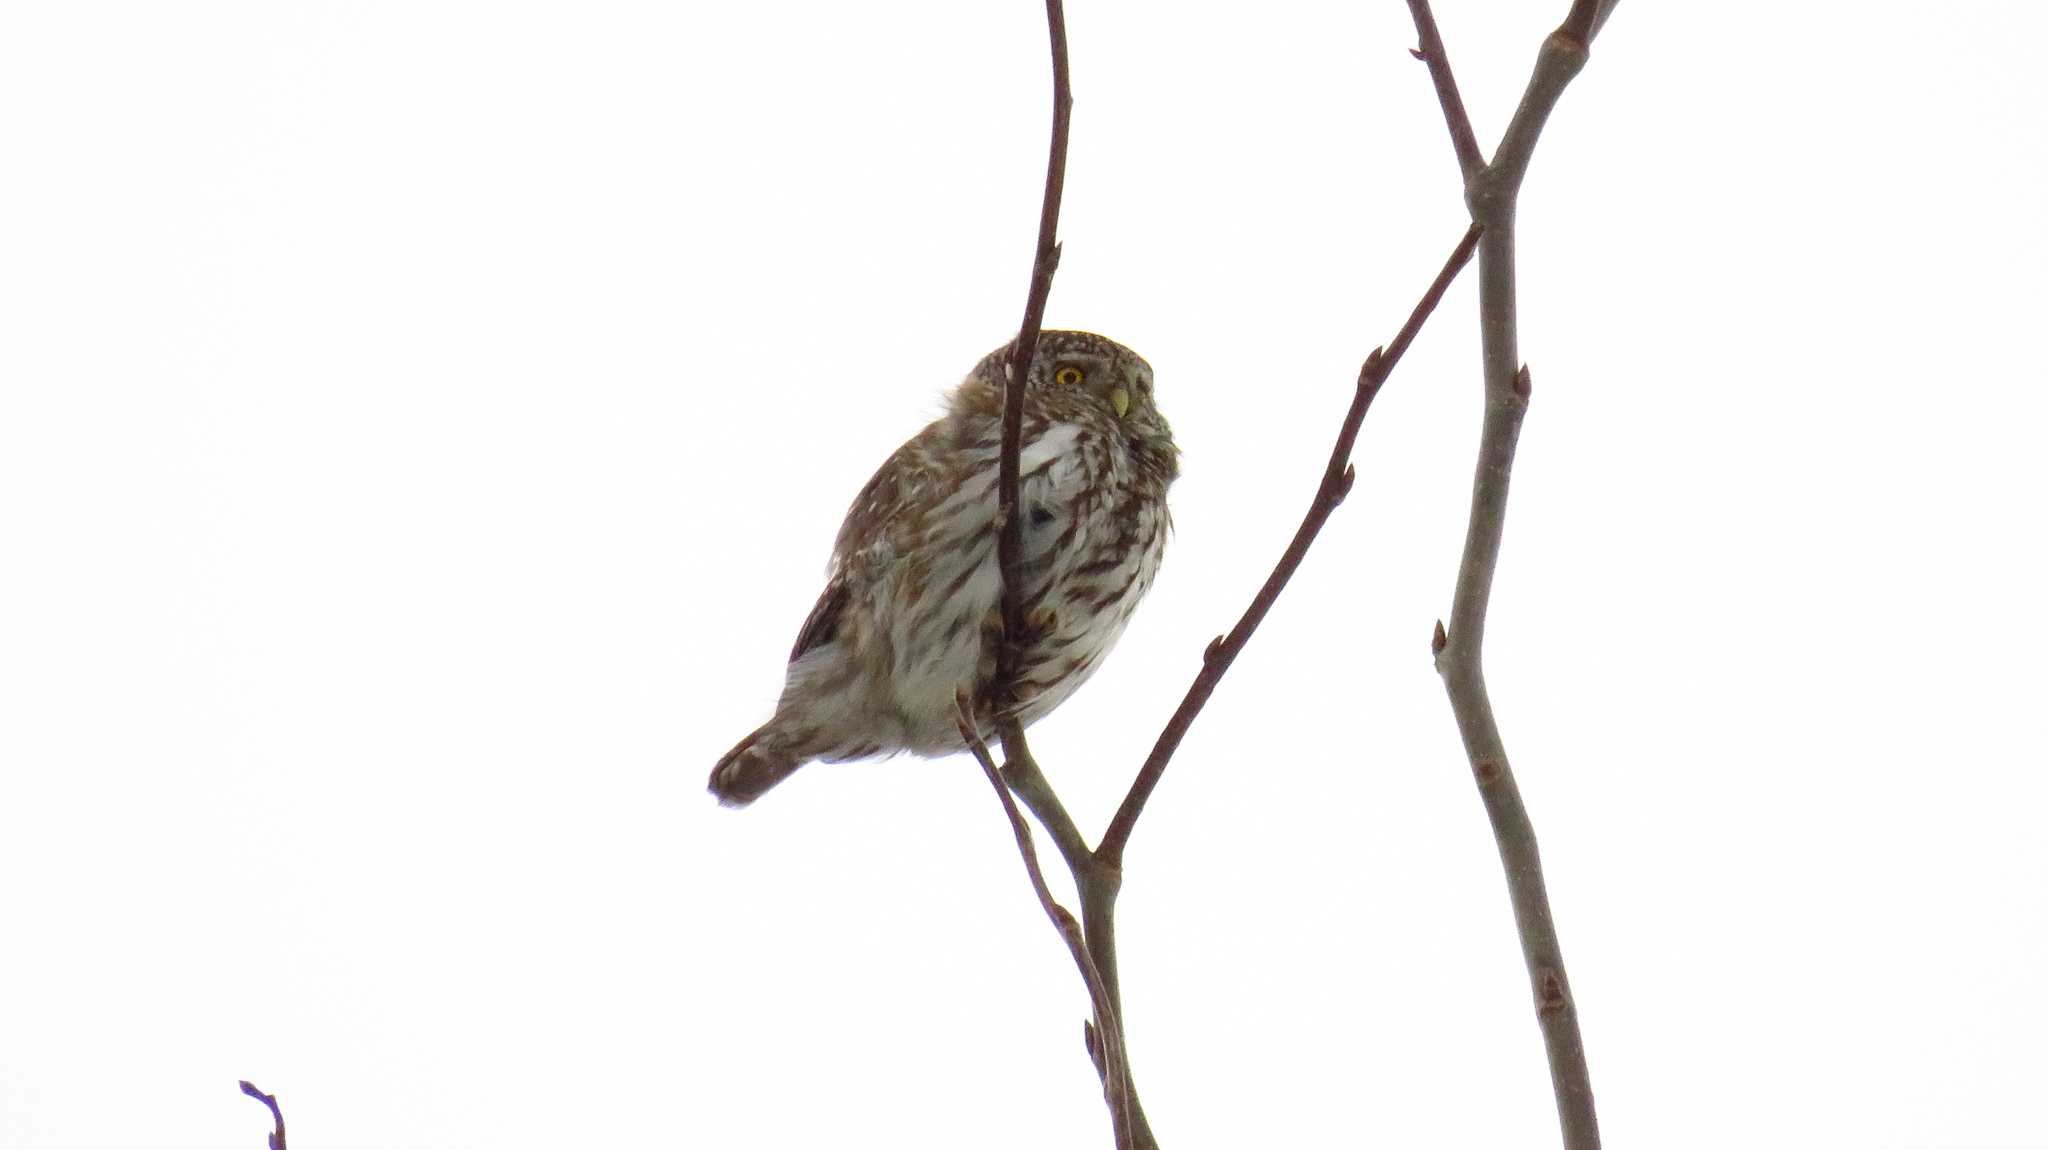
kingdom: Animalia
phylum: Chordata
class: Aves
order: Strigiformes
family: Strigidae
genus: Glaucidium
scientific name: Glaucidium passerinum
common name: Eurasian pygmy owl
